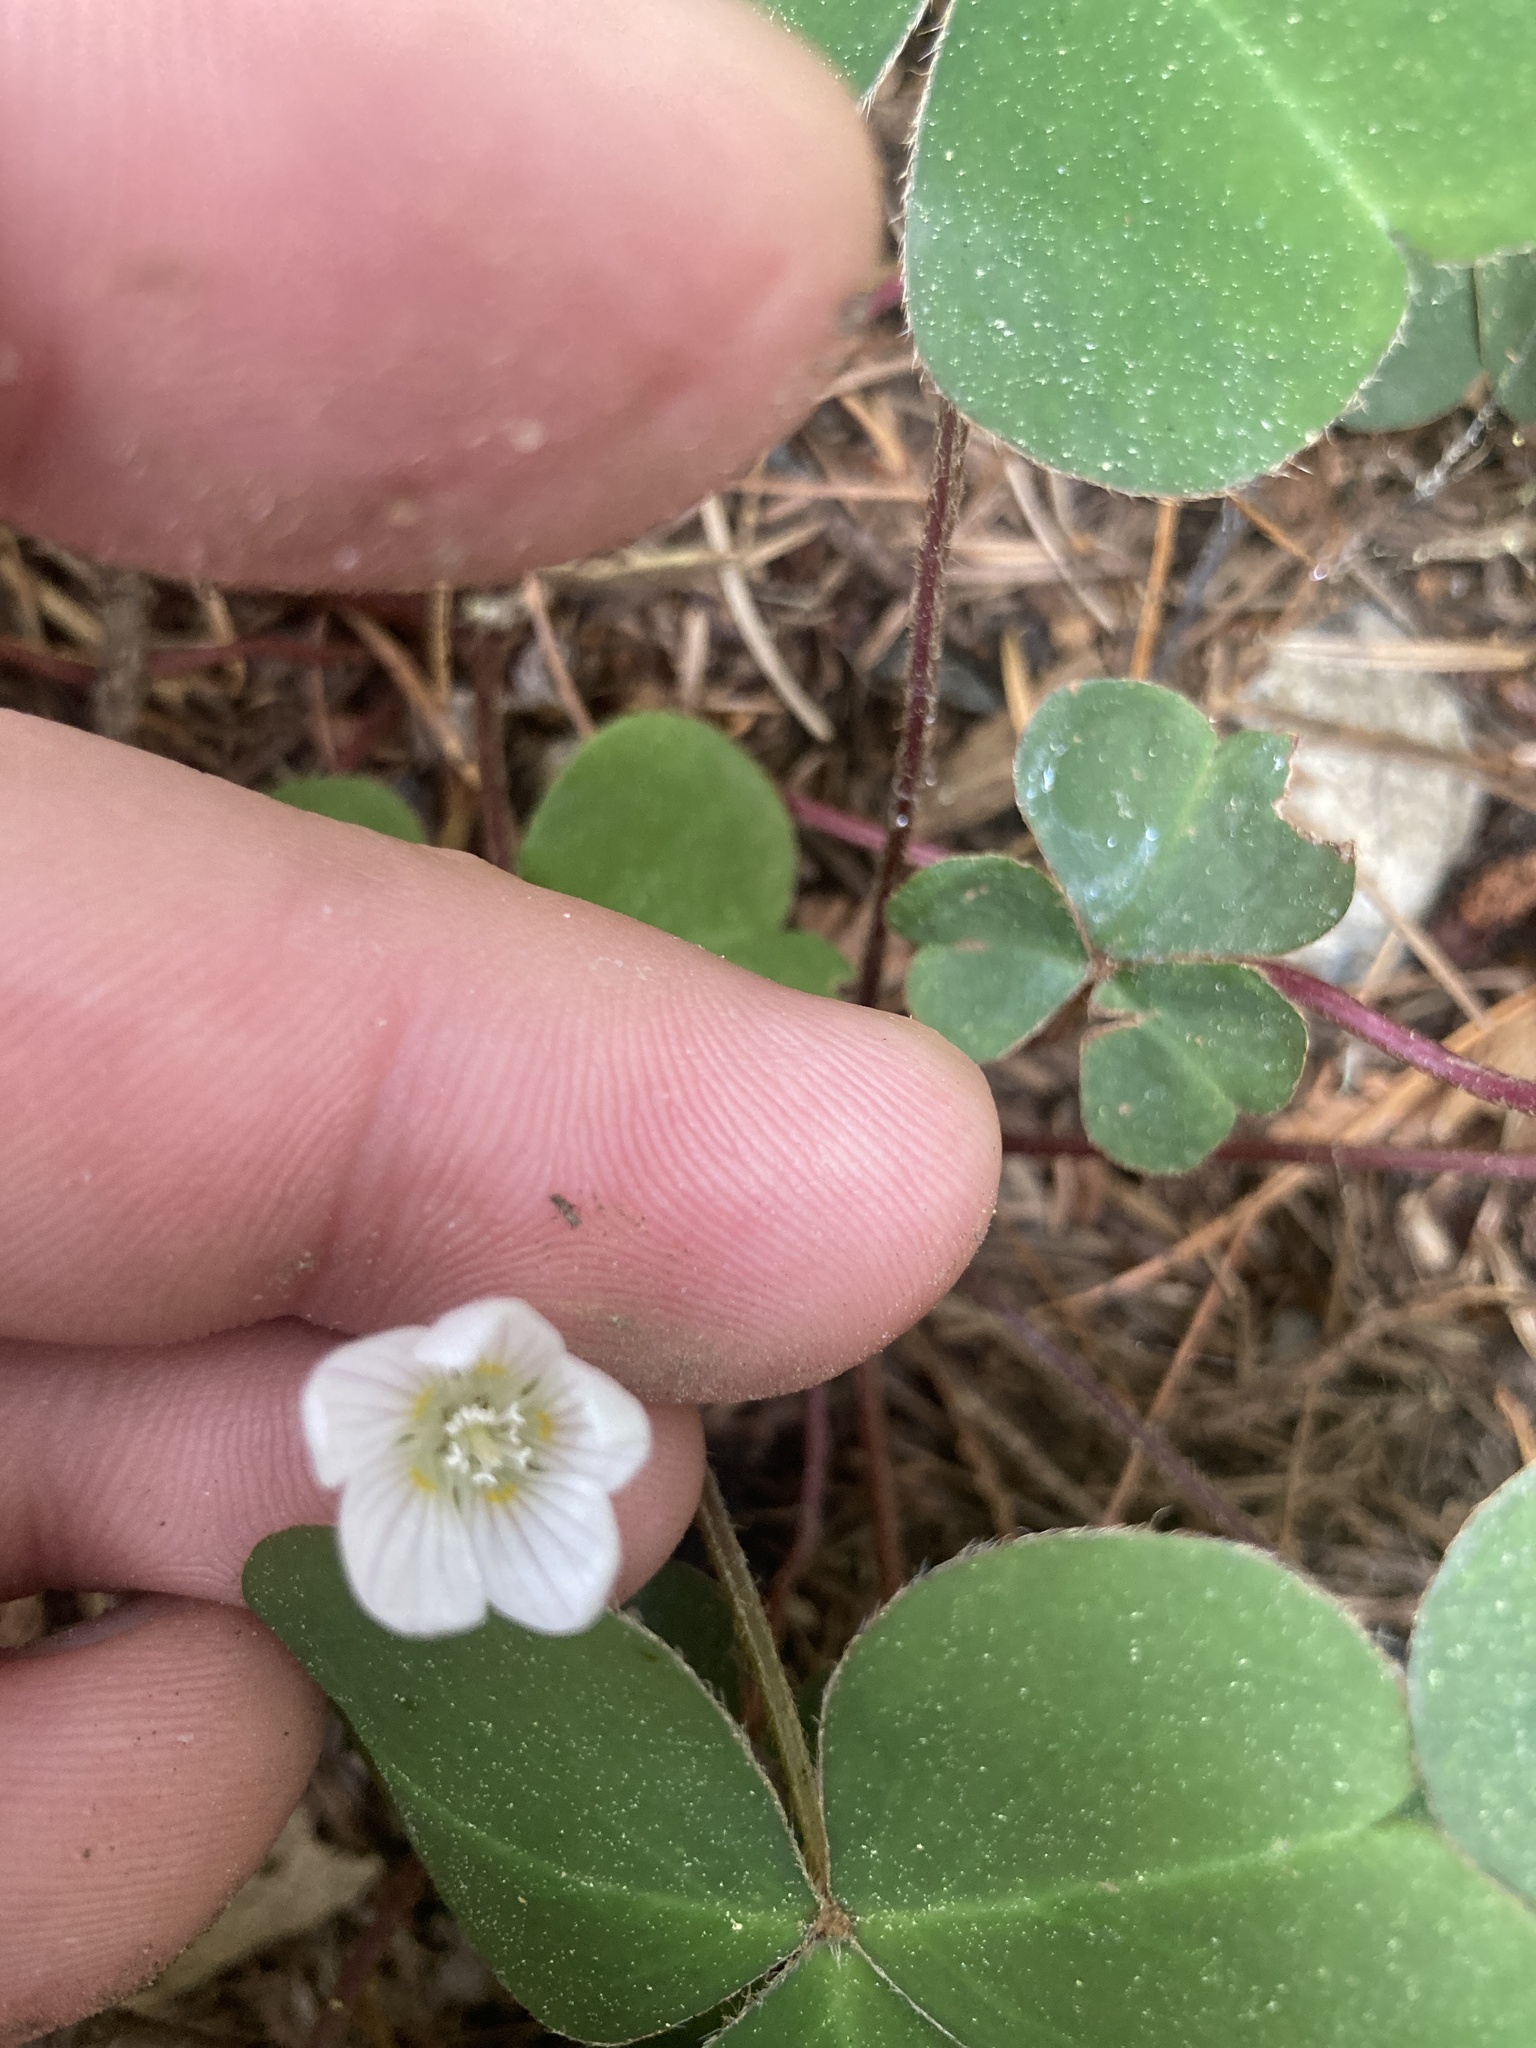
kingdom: Plantae
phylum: Tracheophyta
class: Magnoliopsida
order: Oxalidales
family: Oxalidaceae
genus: Oxalis
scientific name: Oxalis oregana
